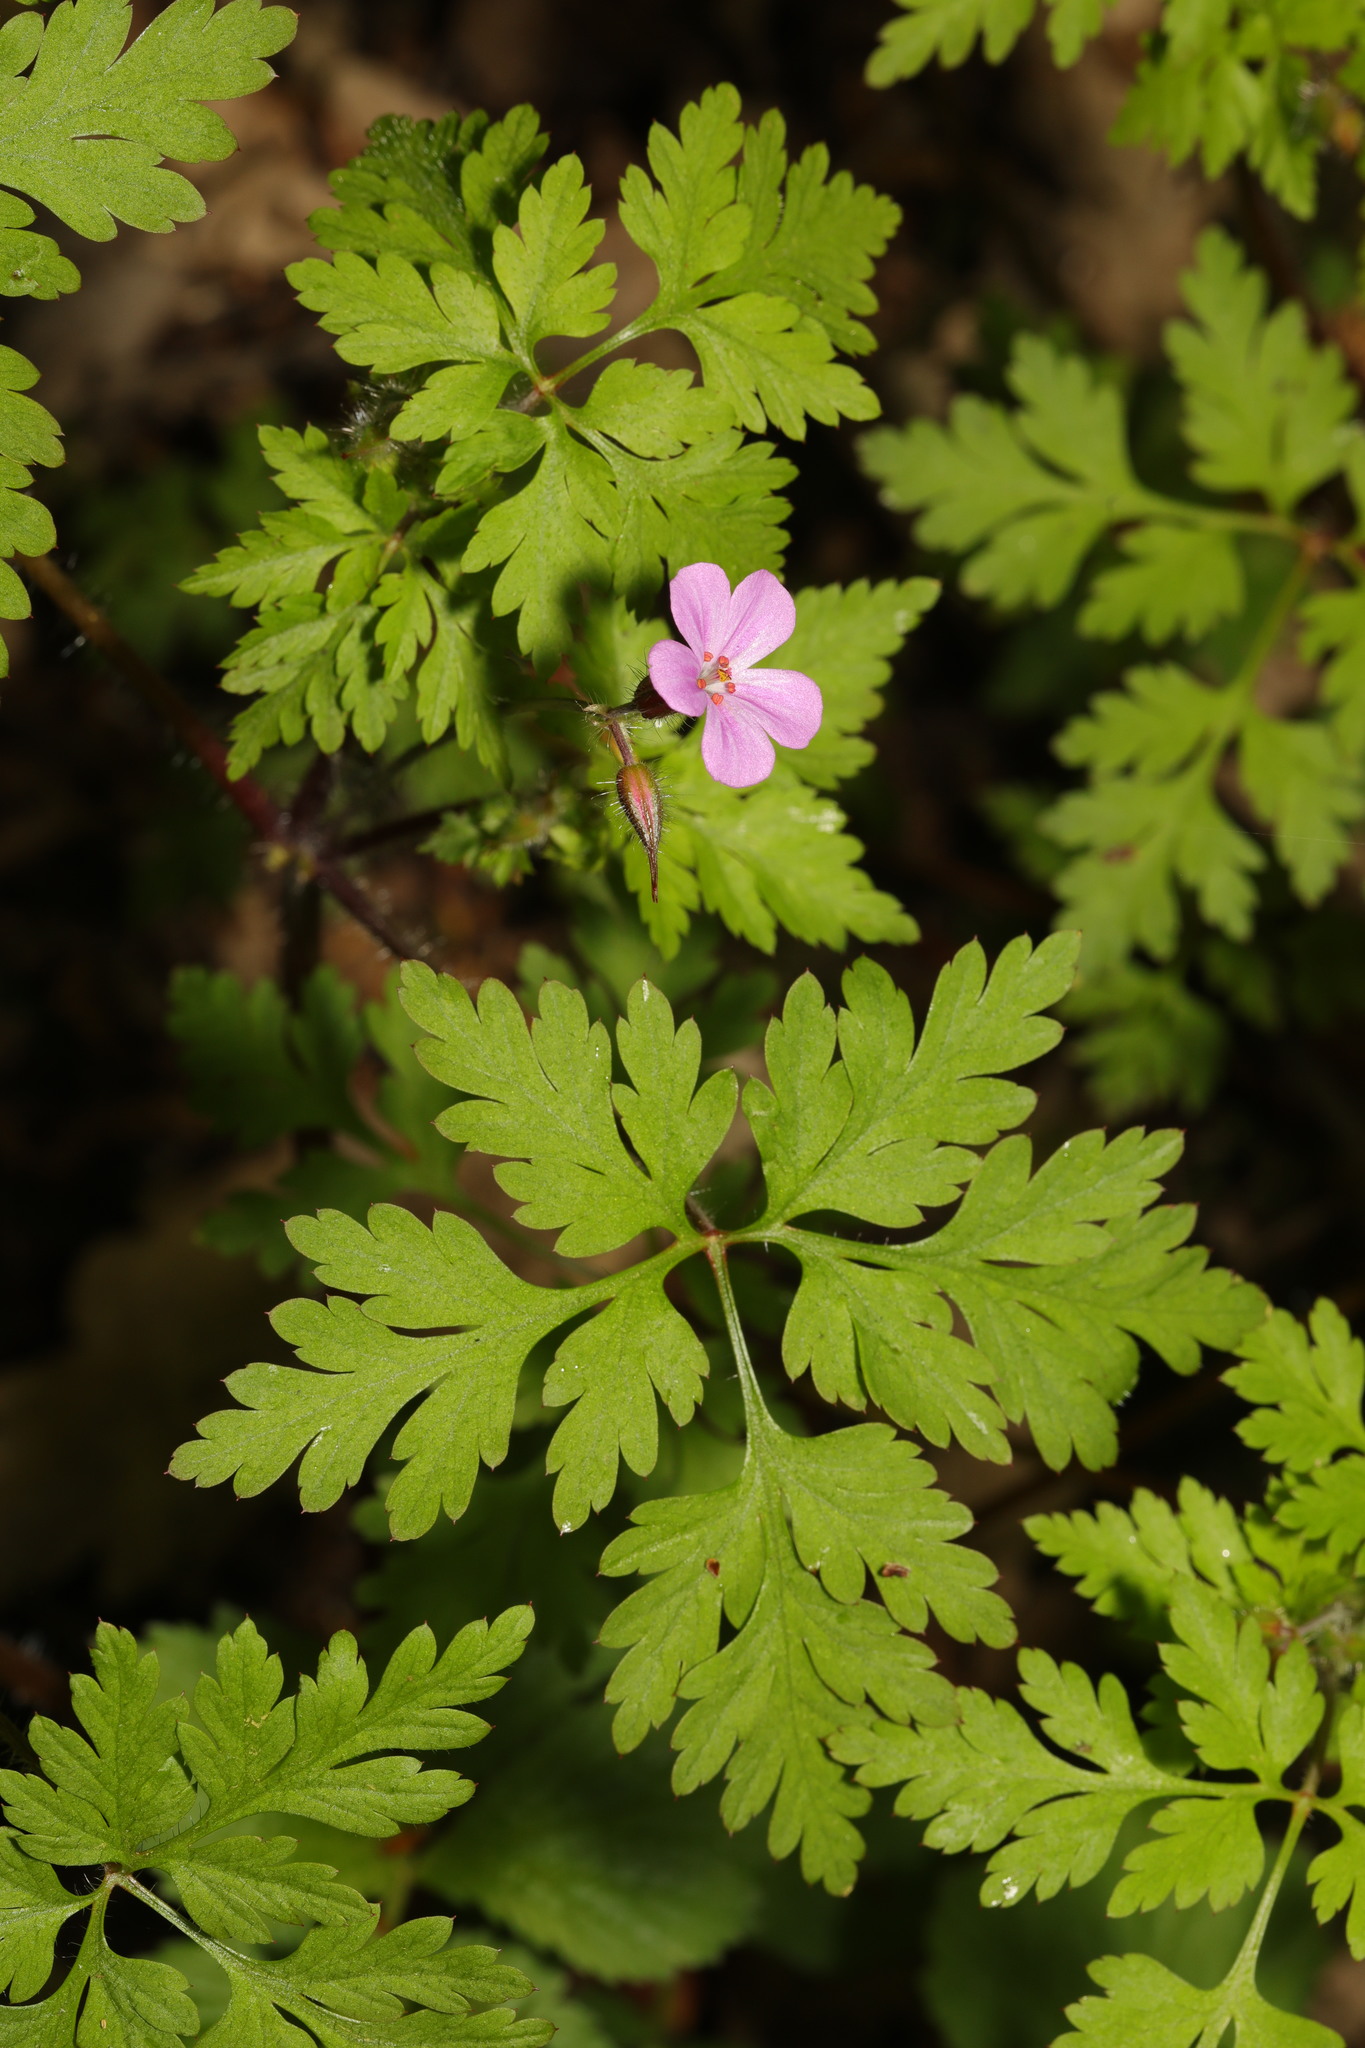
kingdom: Plantae
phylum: Tracheophyta
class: Magnoliopsida
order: Geraniales
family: Geraniaceae
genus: Geranium
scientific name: Geranium robertianum
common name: Herb-robert
